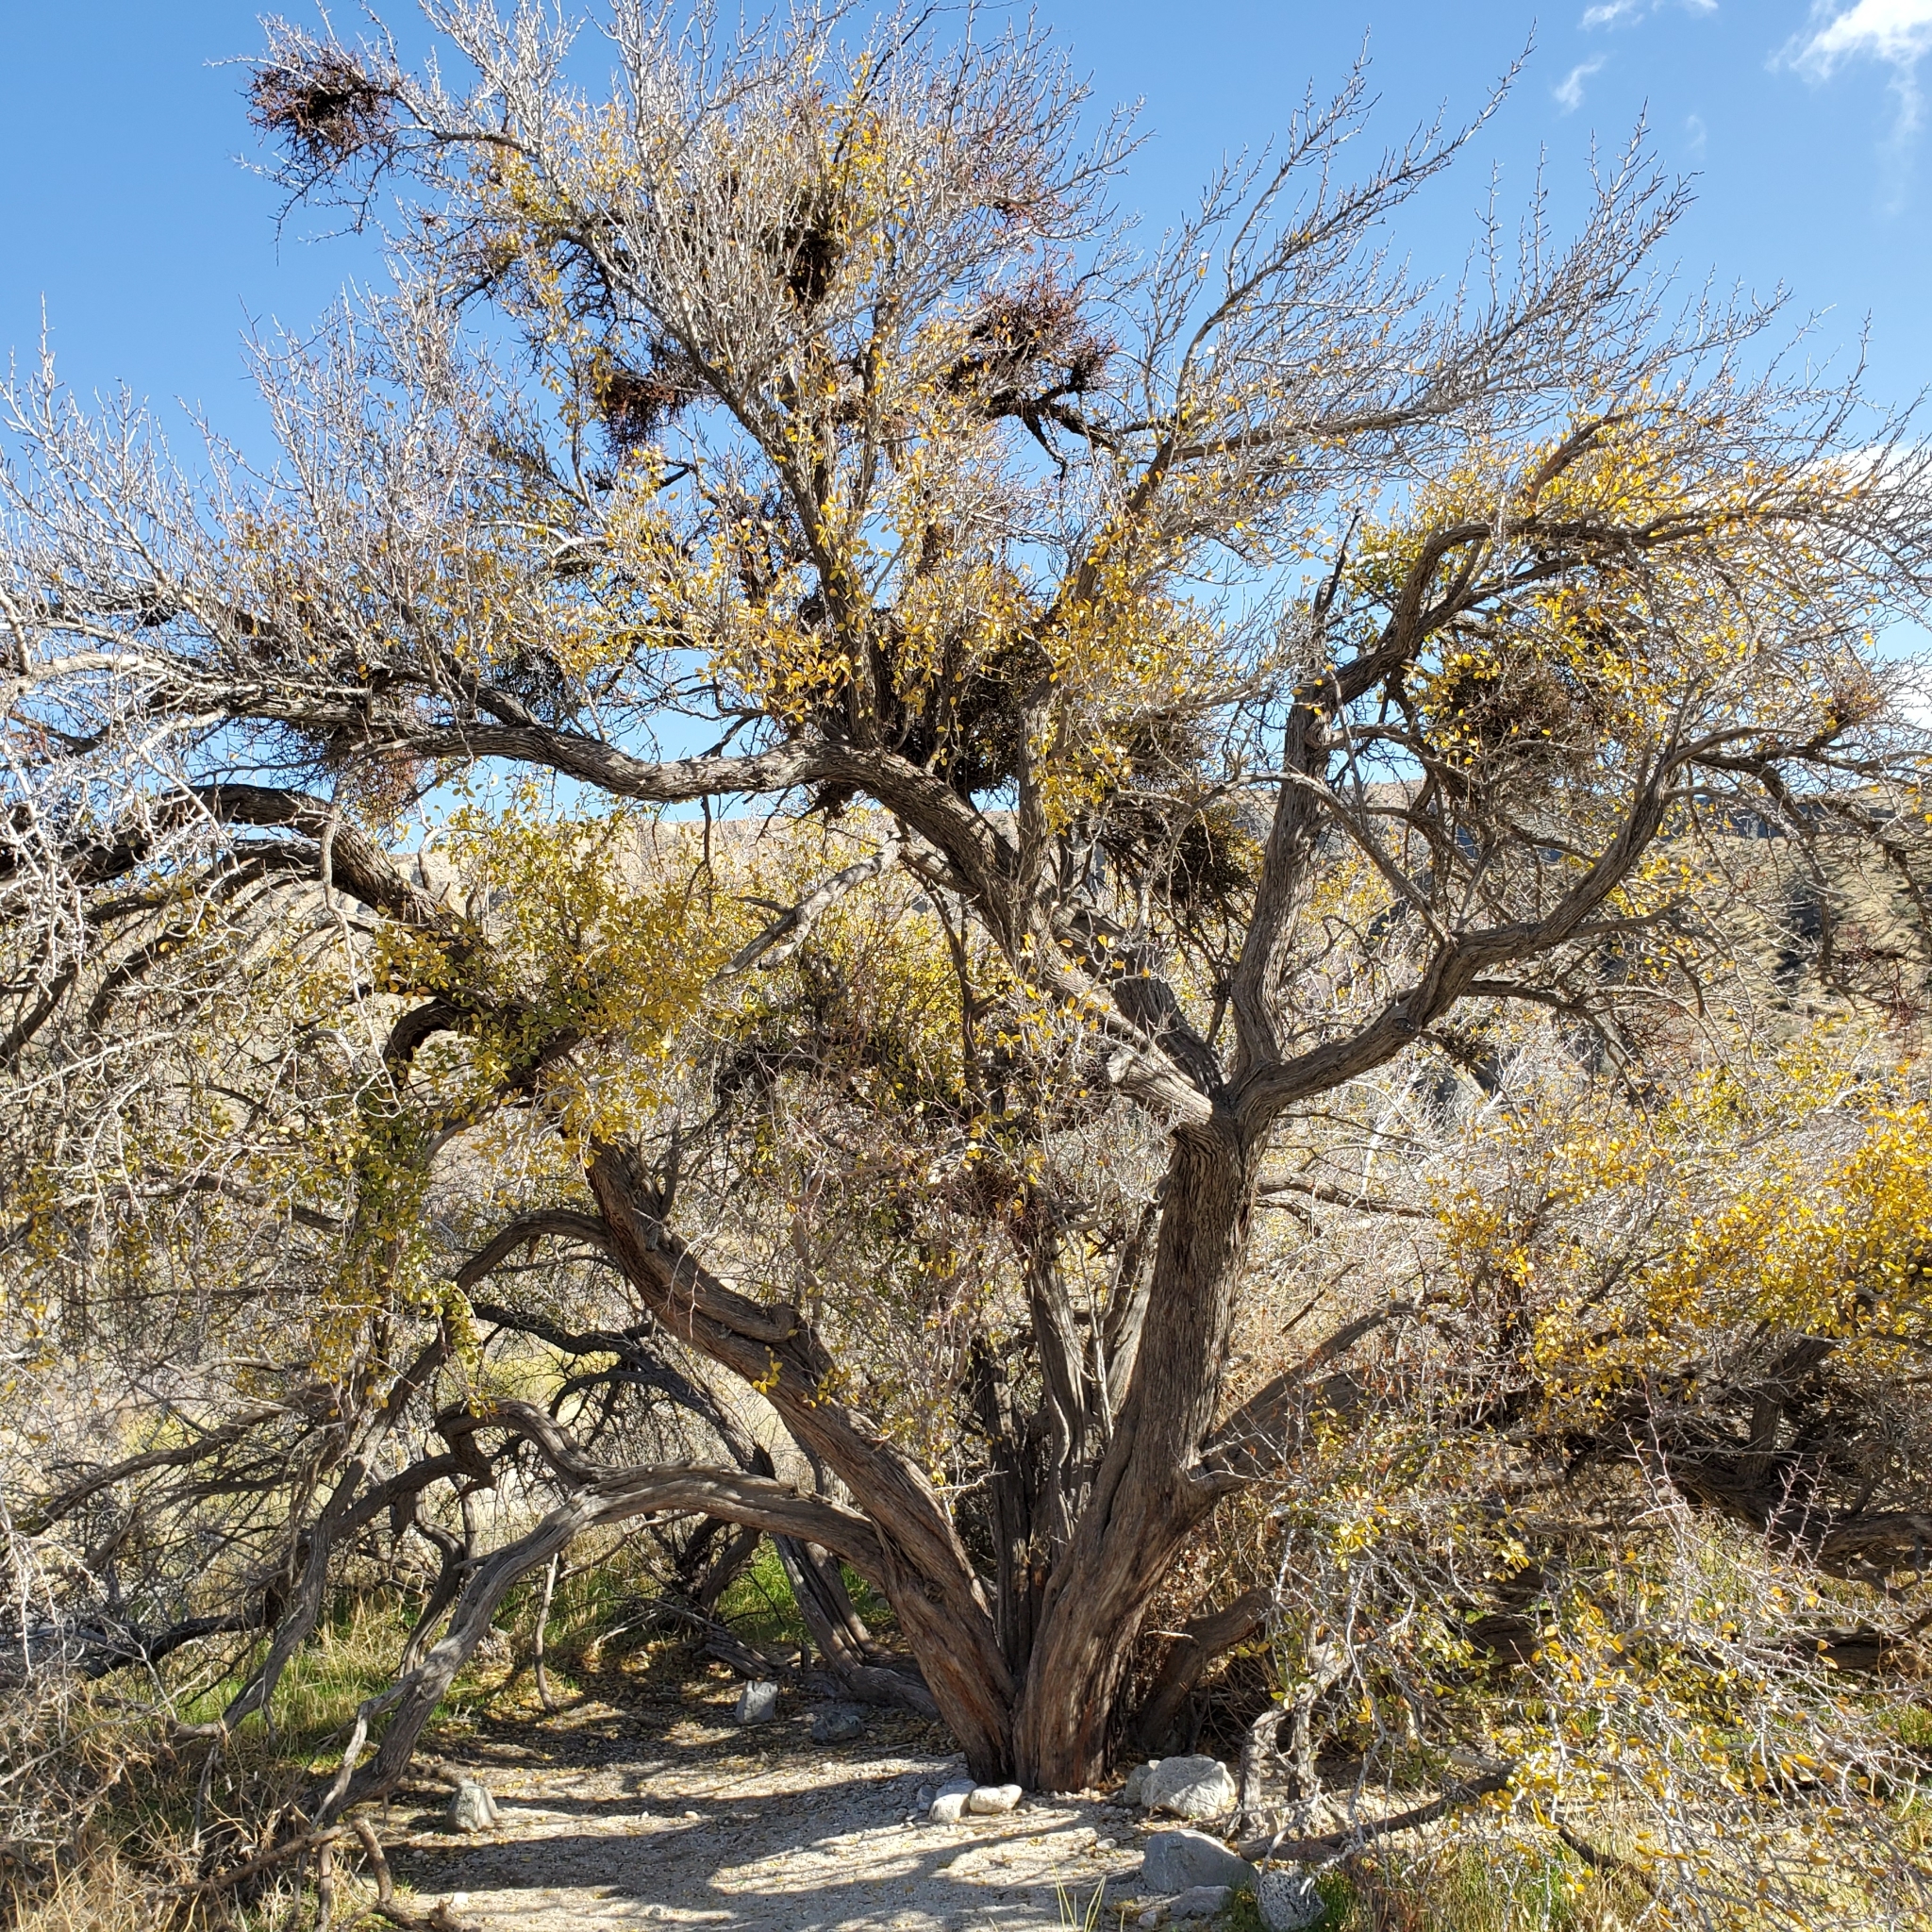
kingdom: Plantae
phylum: Tracheophyta
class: Magnoliopsida
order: Rosales
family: Rhamnaceae
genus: Pseudoziziphus
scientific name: Pseudoziziphus parryi
